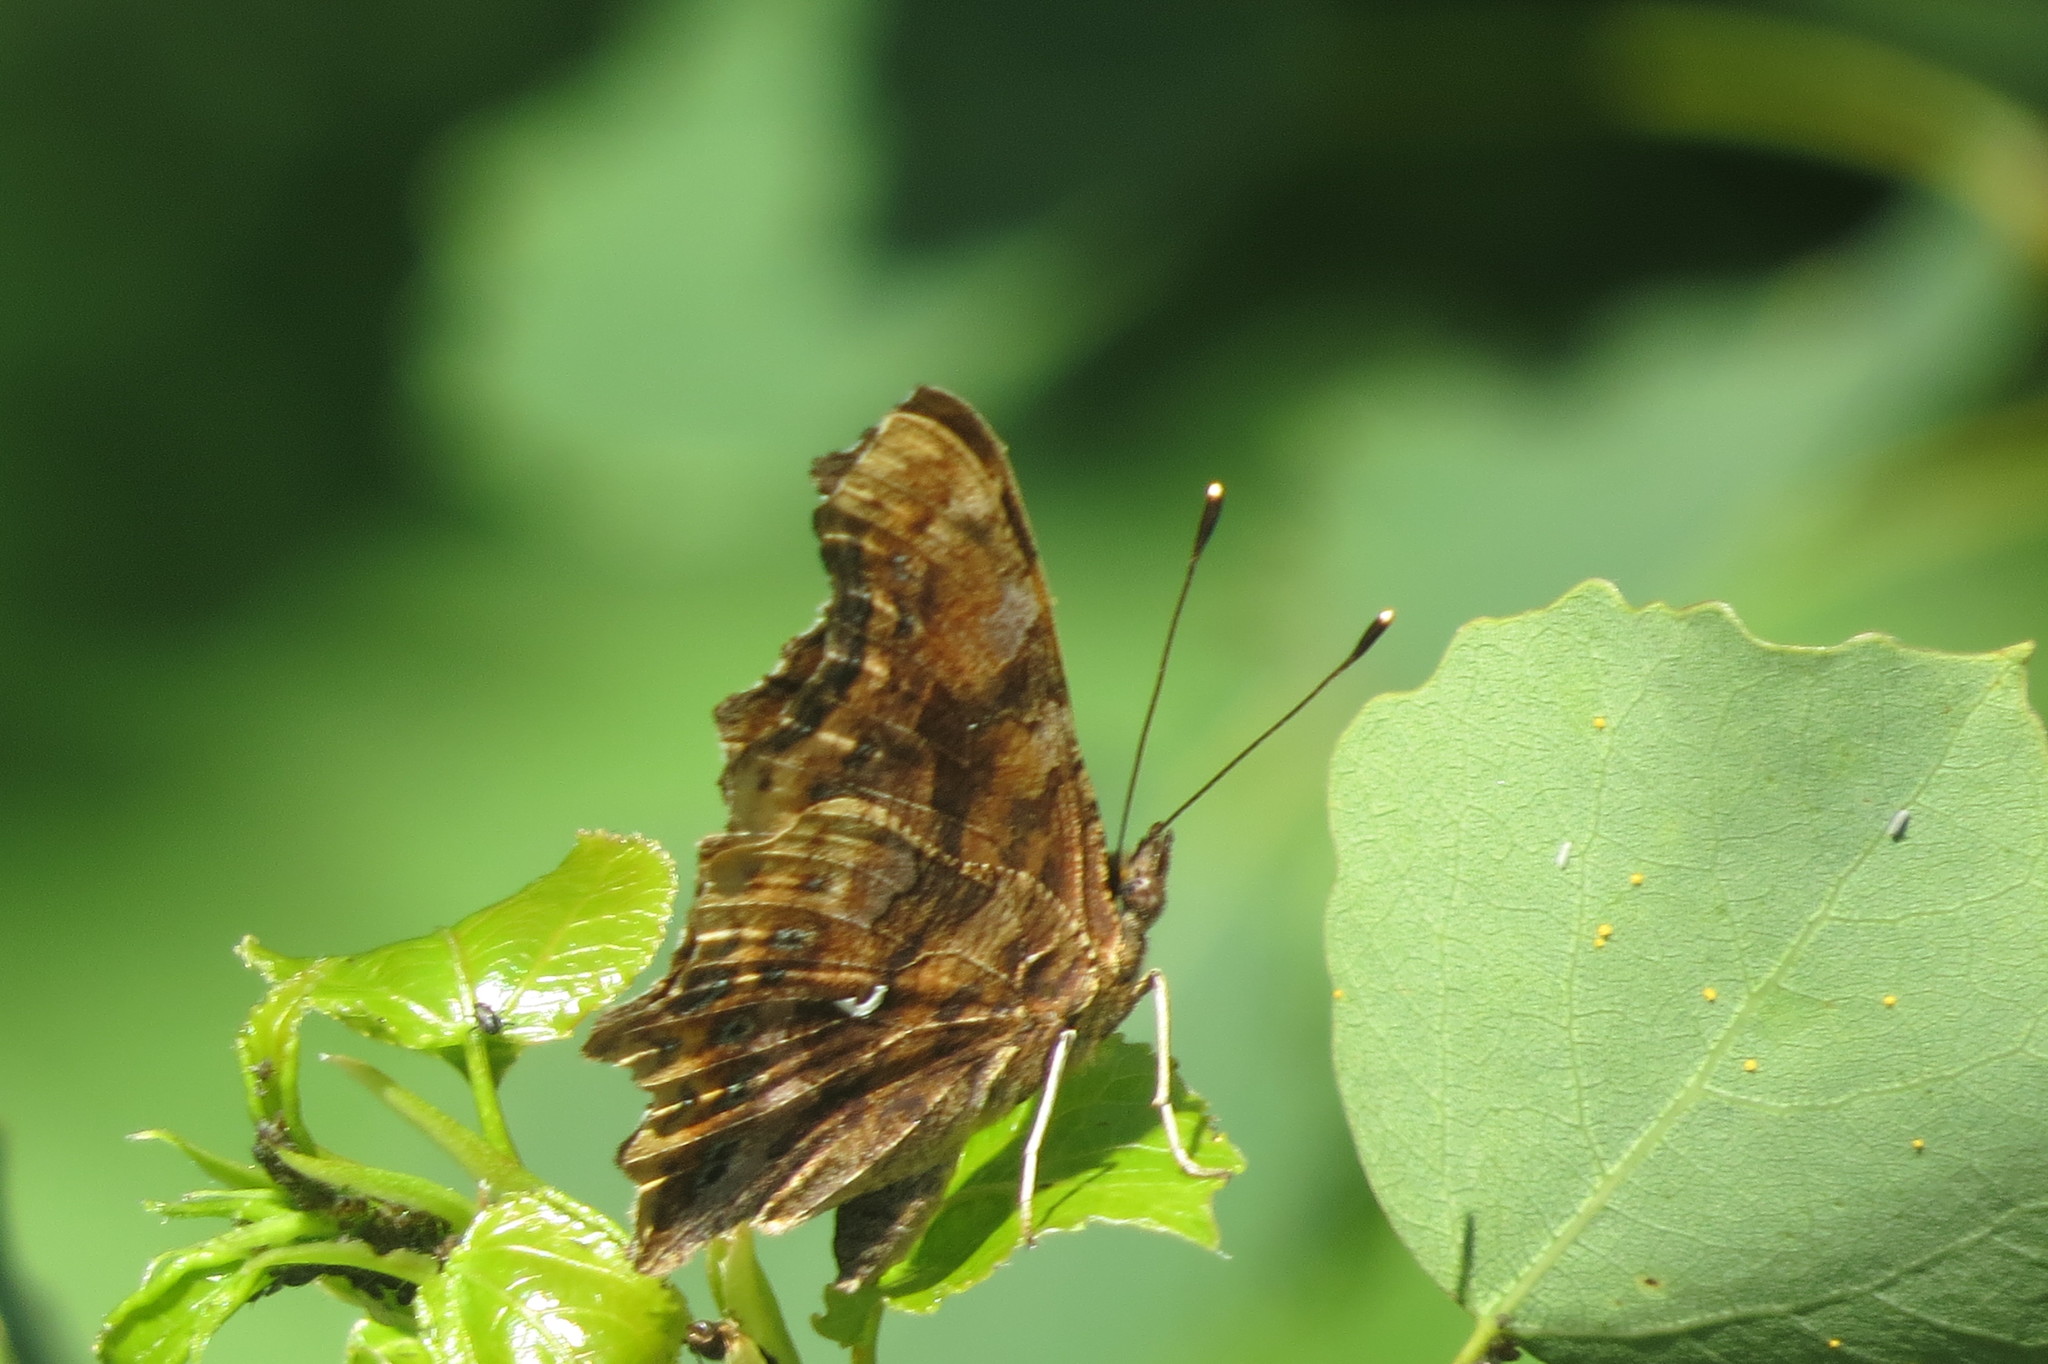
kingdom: Animalia
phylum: Arthropoda
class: Insecta
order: Lepidoptera
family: Nymphalidae
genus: Polygonia
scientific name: Polygonia c-album
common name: Comma
